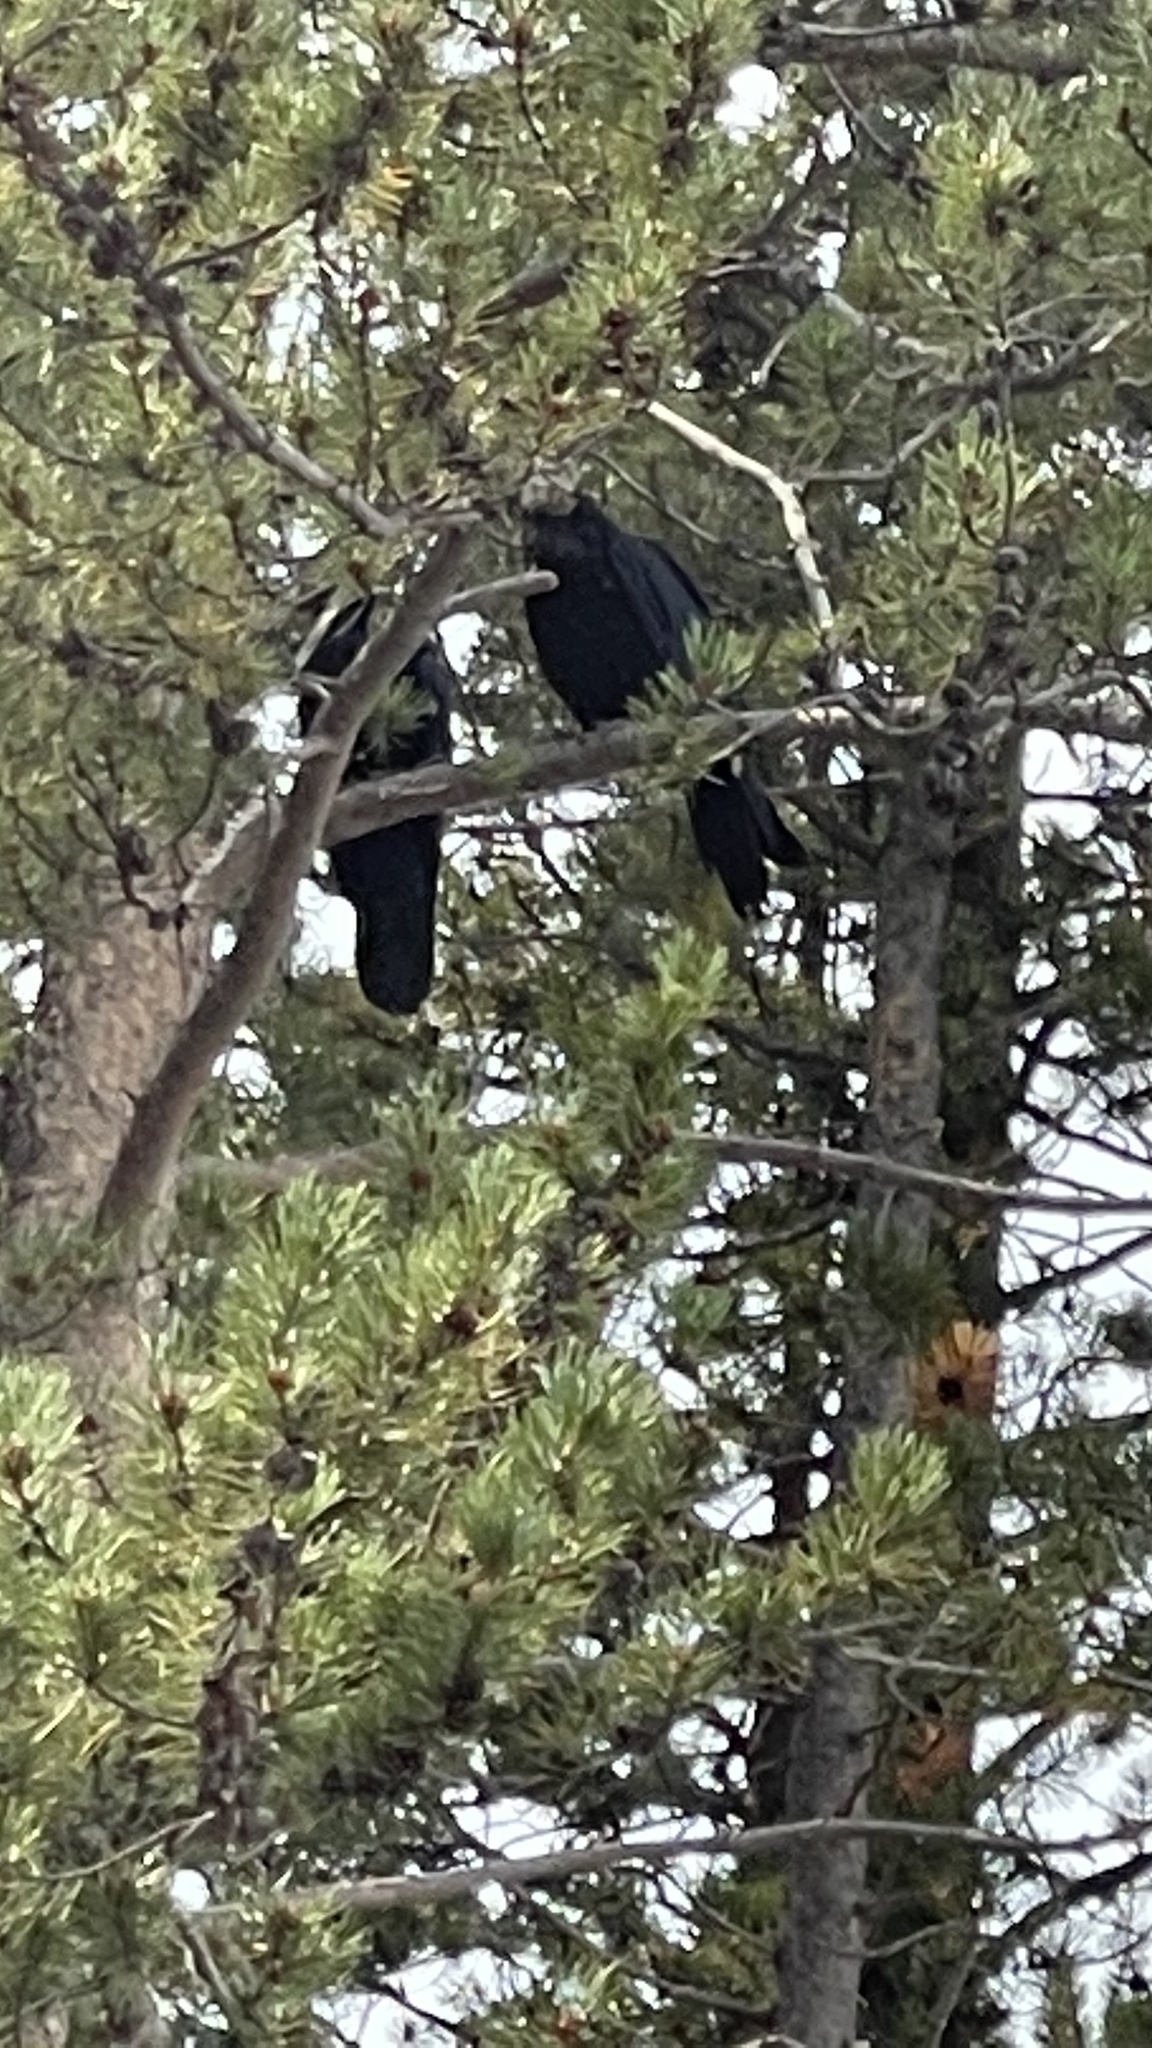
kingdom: Animalia
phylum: Chordata
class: Aves
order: Passeriformes
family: Corvidae
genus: Corvus
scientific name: Corvus corax
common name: Common raven
